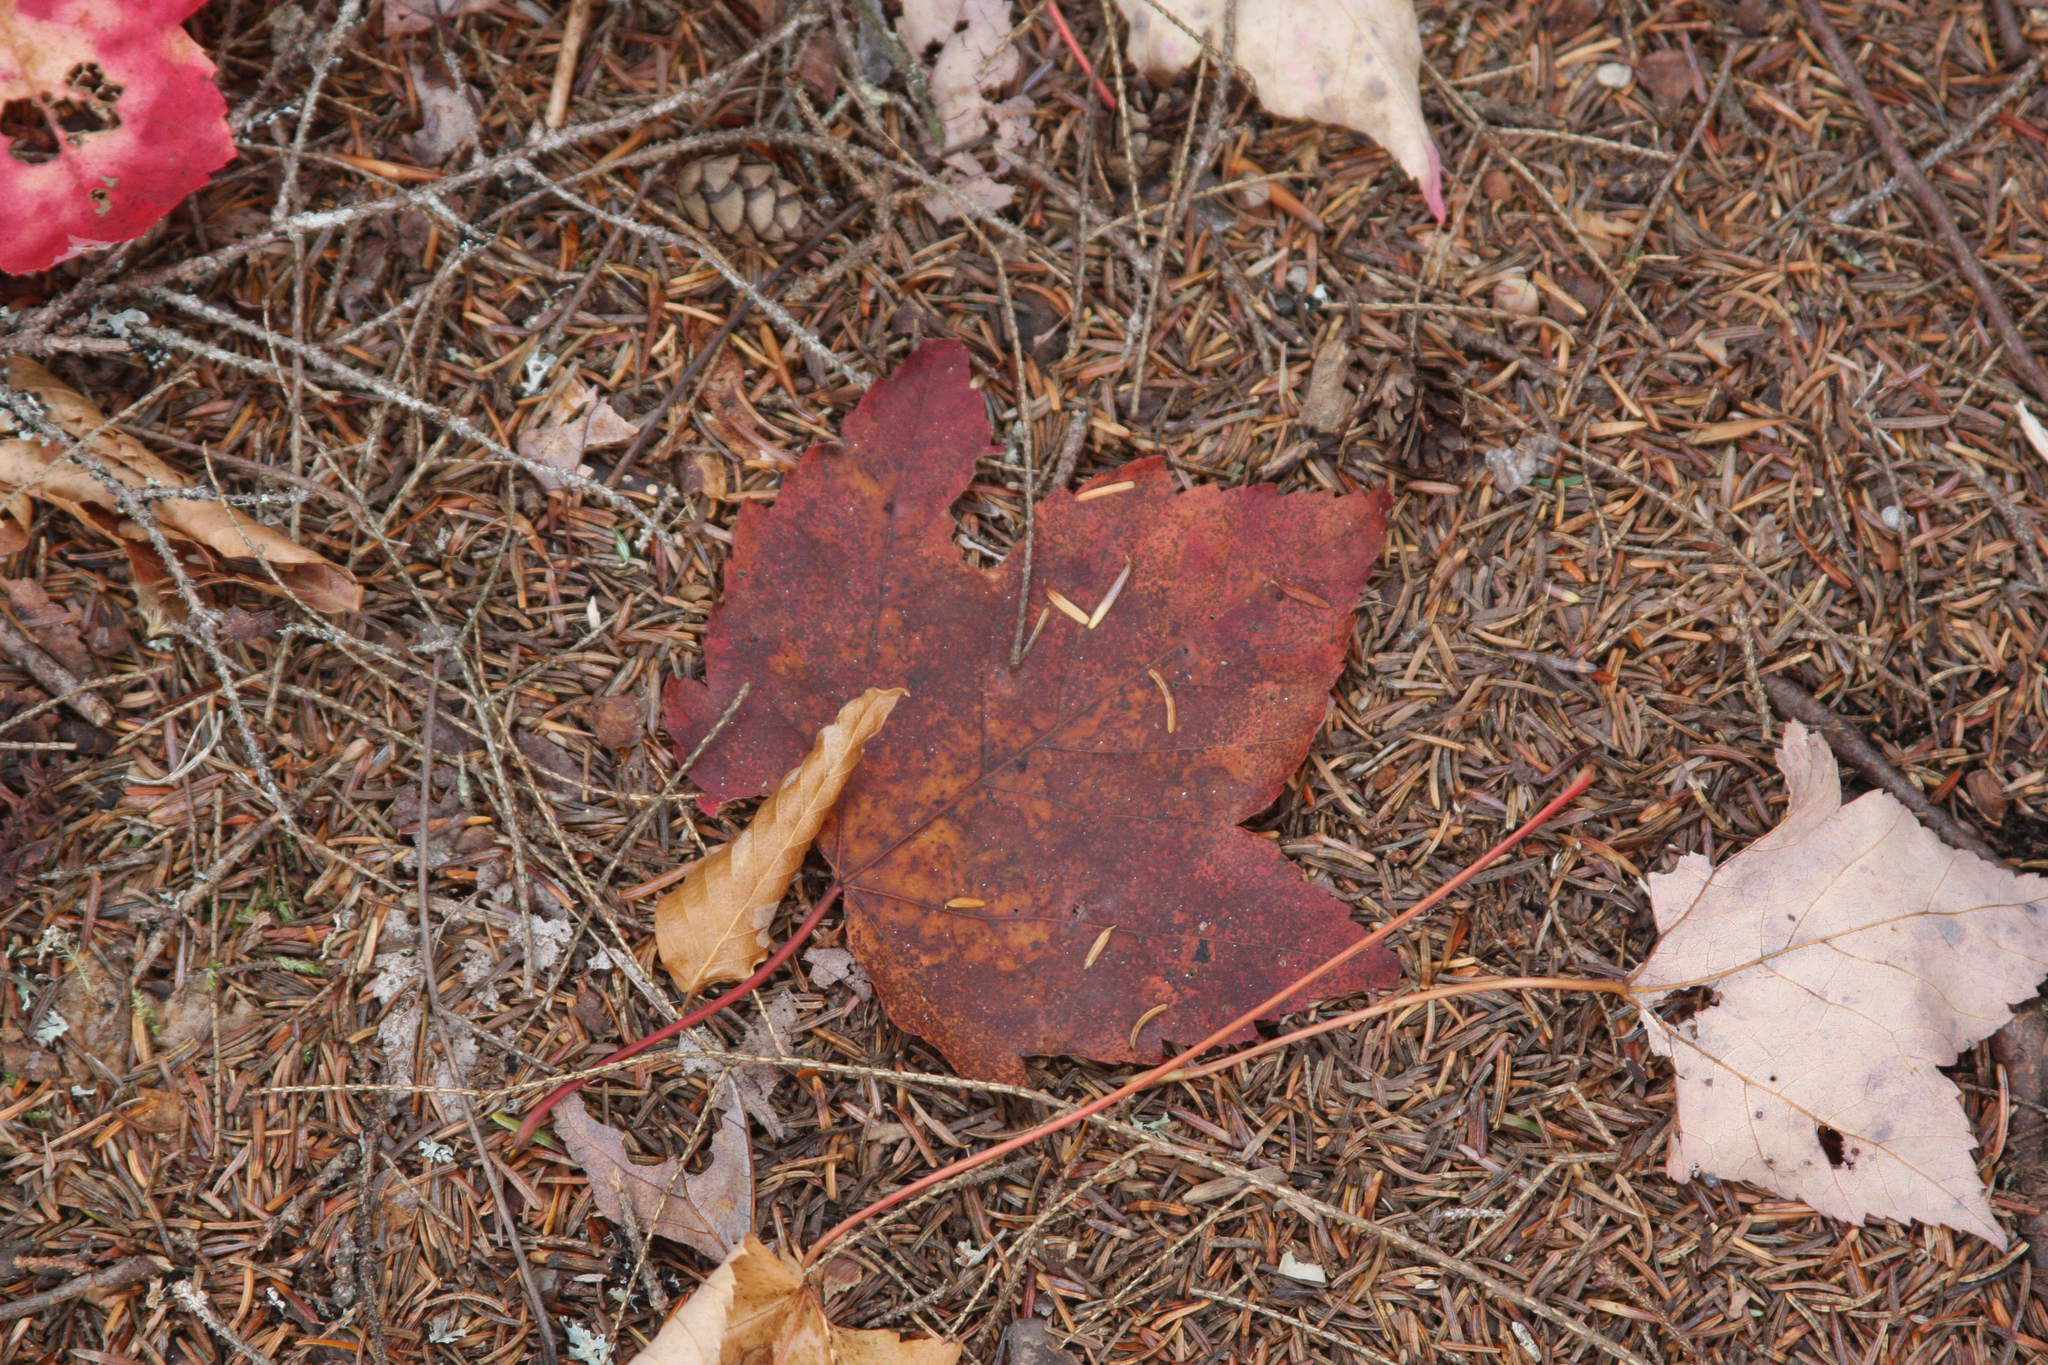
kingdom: Plantae
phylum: Tracheophyta
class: Magnoliopsida
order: Sapindales
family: Sapindaceae
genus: Acer
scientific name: Acer rubrum
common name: Red maple
